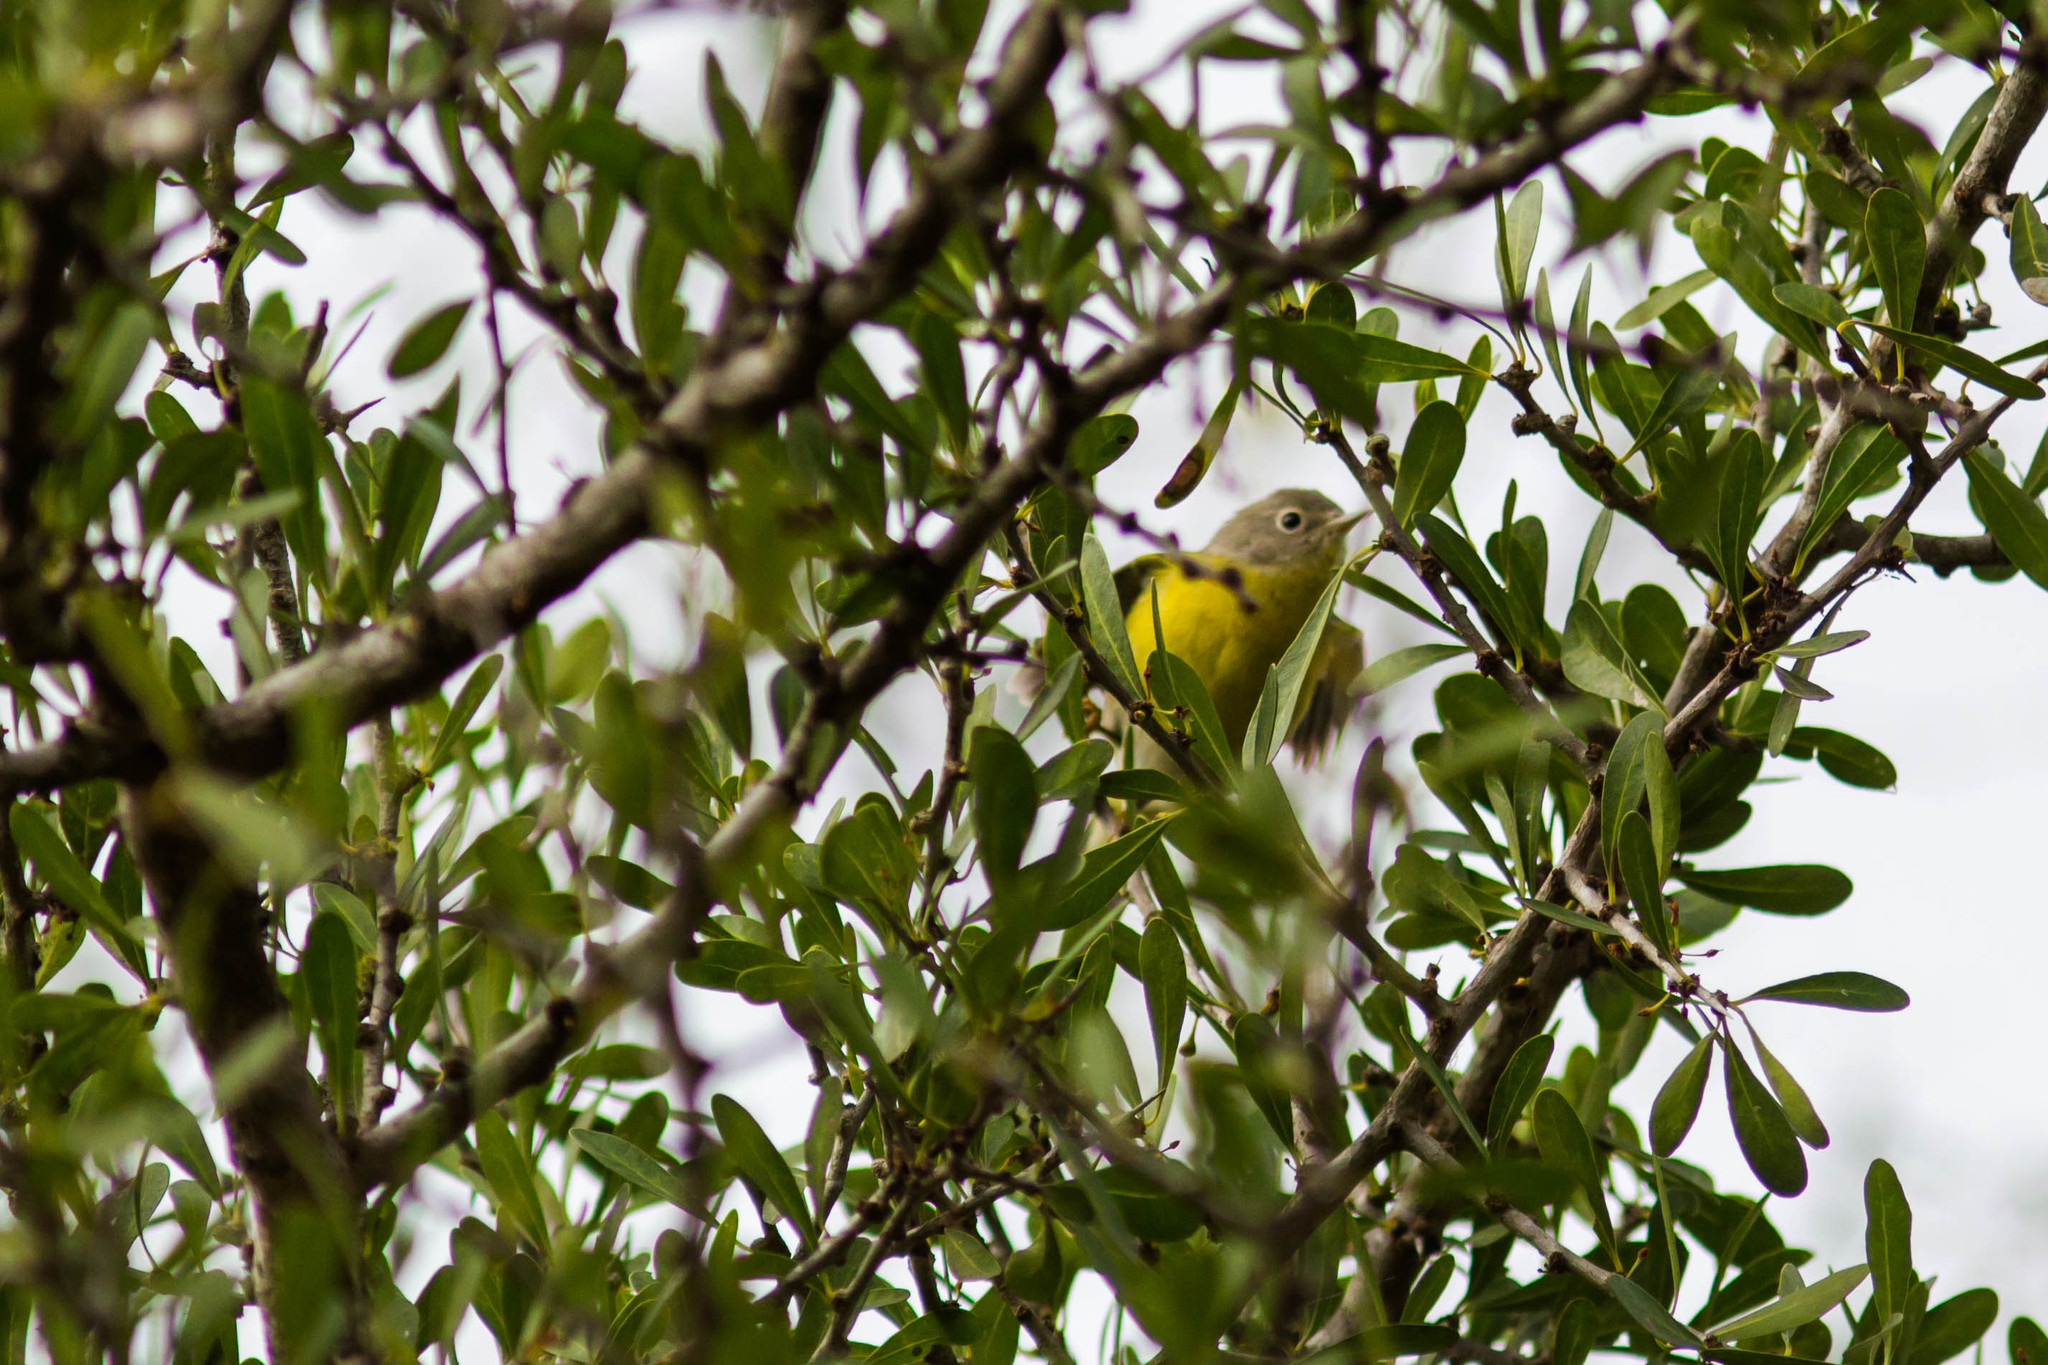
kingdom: Animalia
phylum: Chordata
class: Aves
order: Passeriformes
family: Parulidae
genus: Leiothlypis
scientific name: Leiothlypis ruficapilla
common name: Nashville warbler
